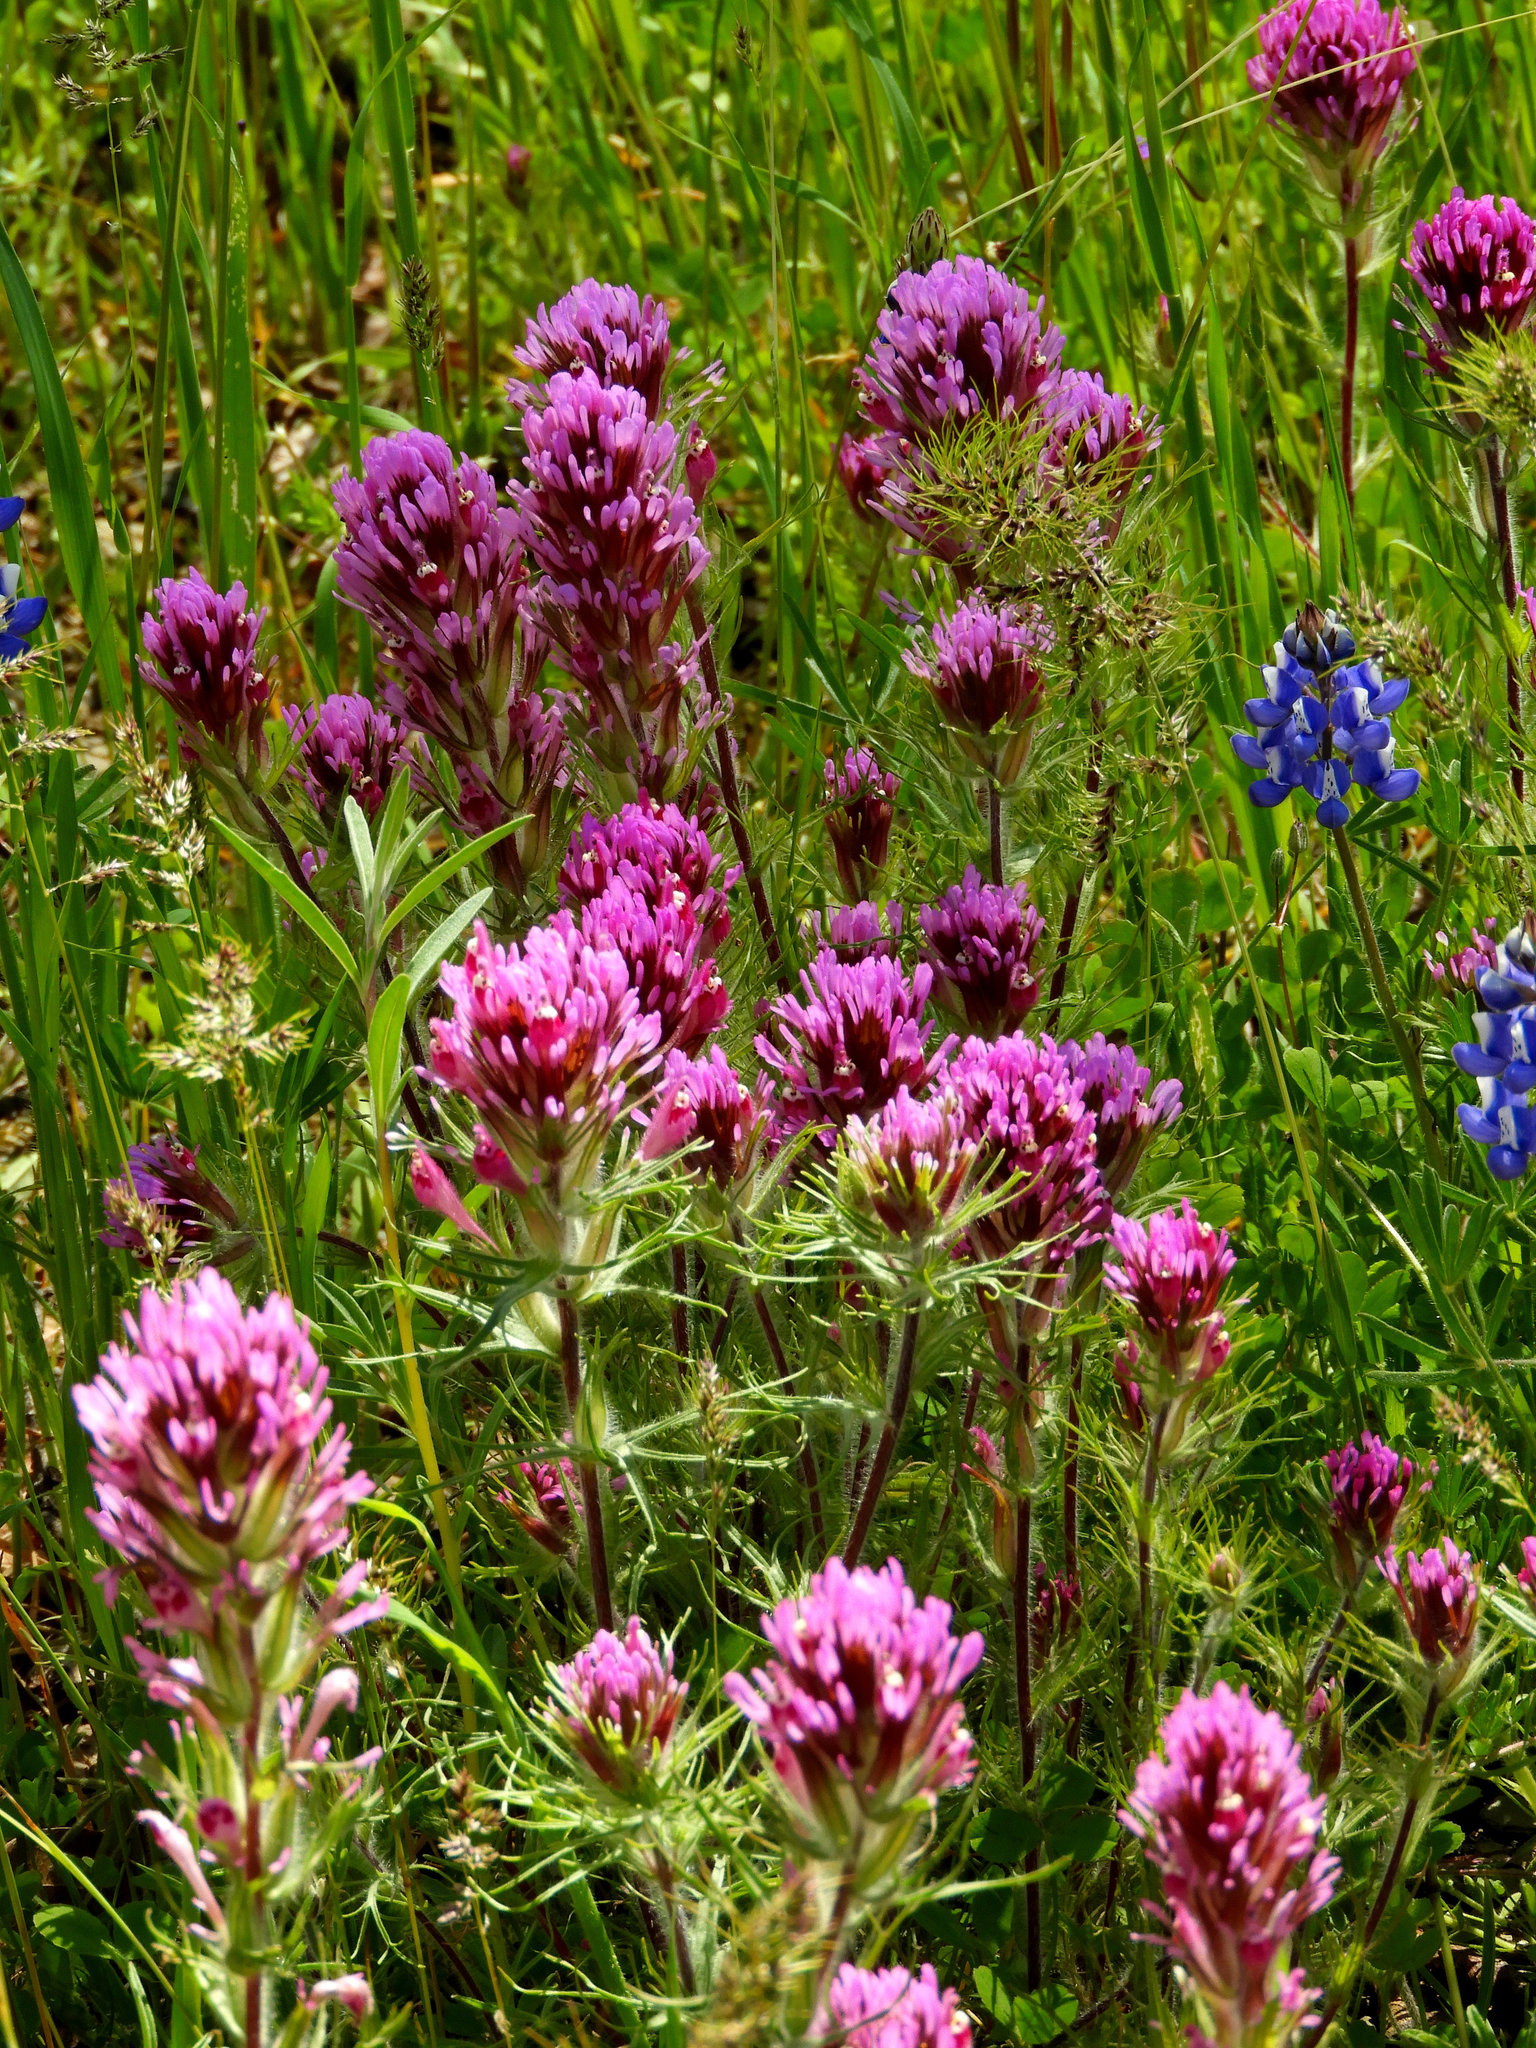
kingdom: Plantae
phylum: Tracheophyta
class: Magnoliopsida
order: Lamiales
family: Orobanchaceae
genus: Castilleja
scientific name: Castilleja exserta
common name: Purple owl-clover
